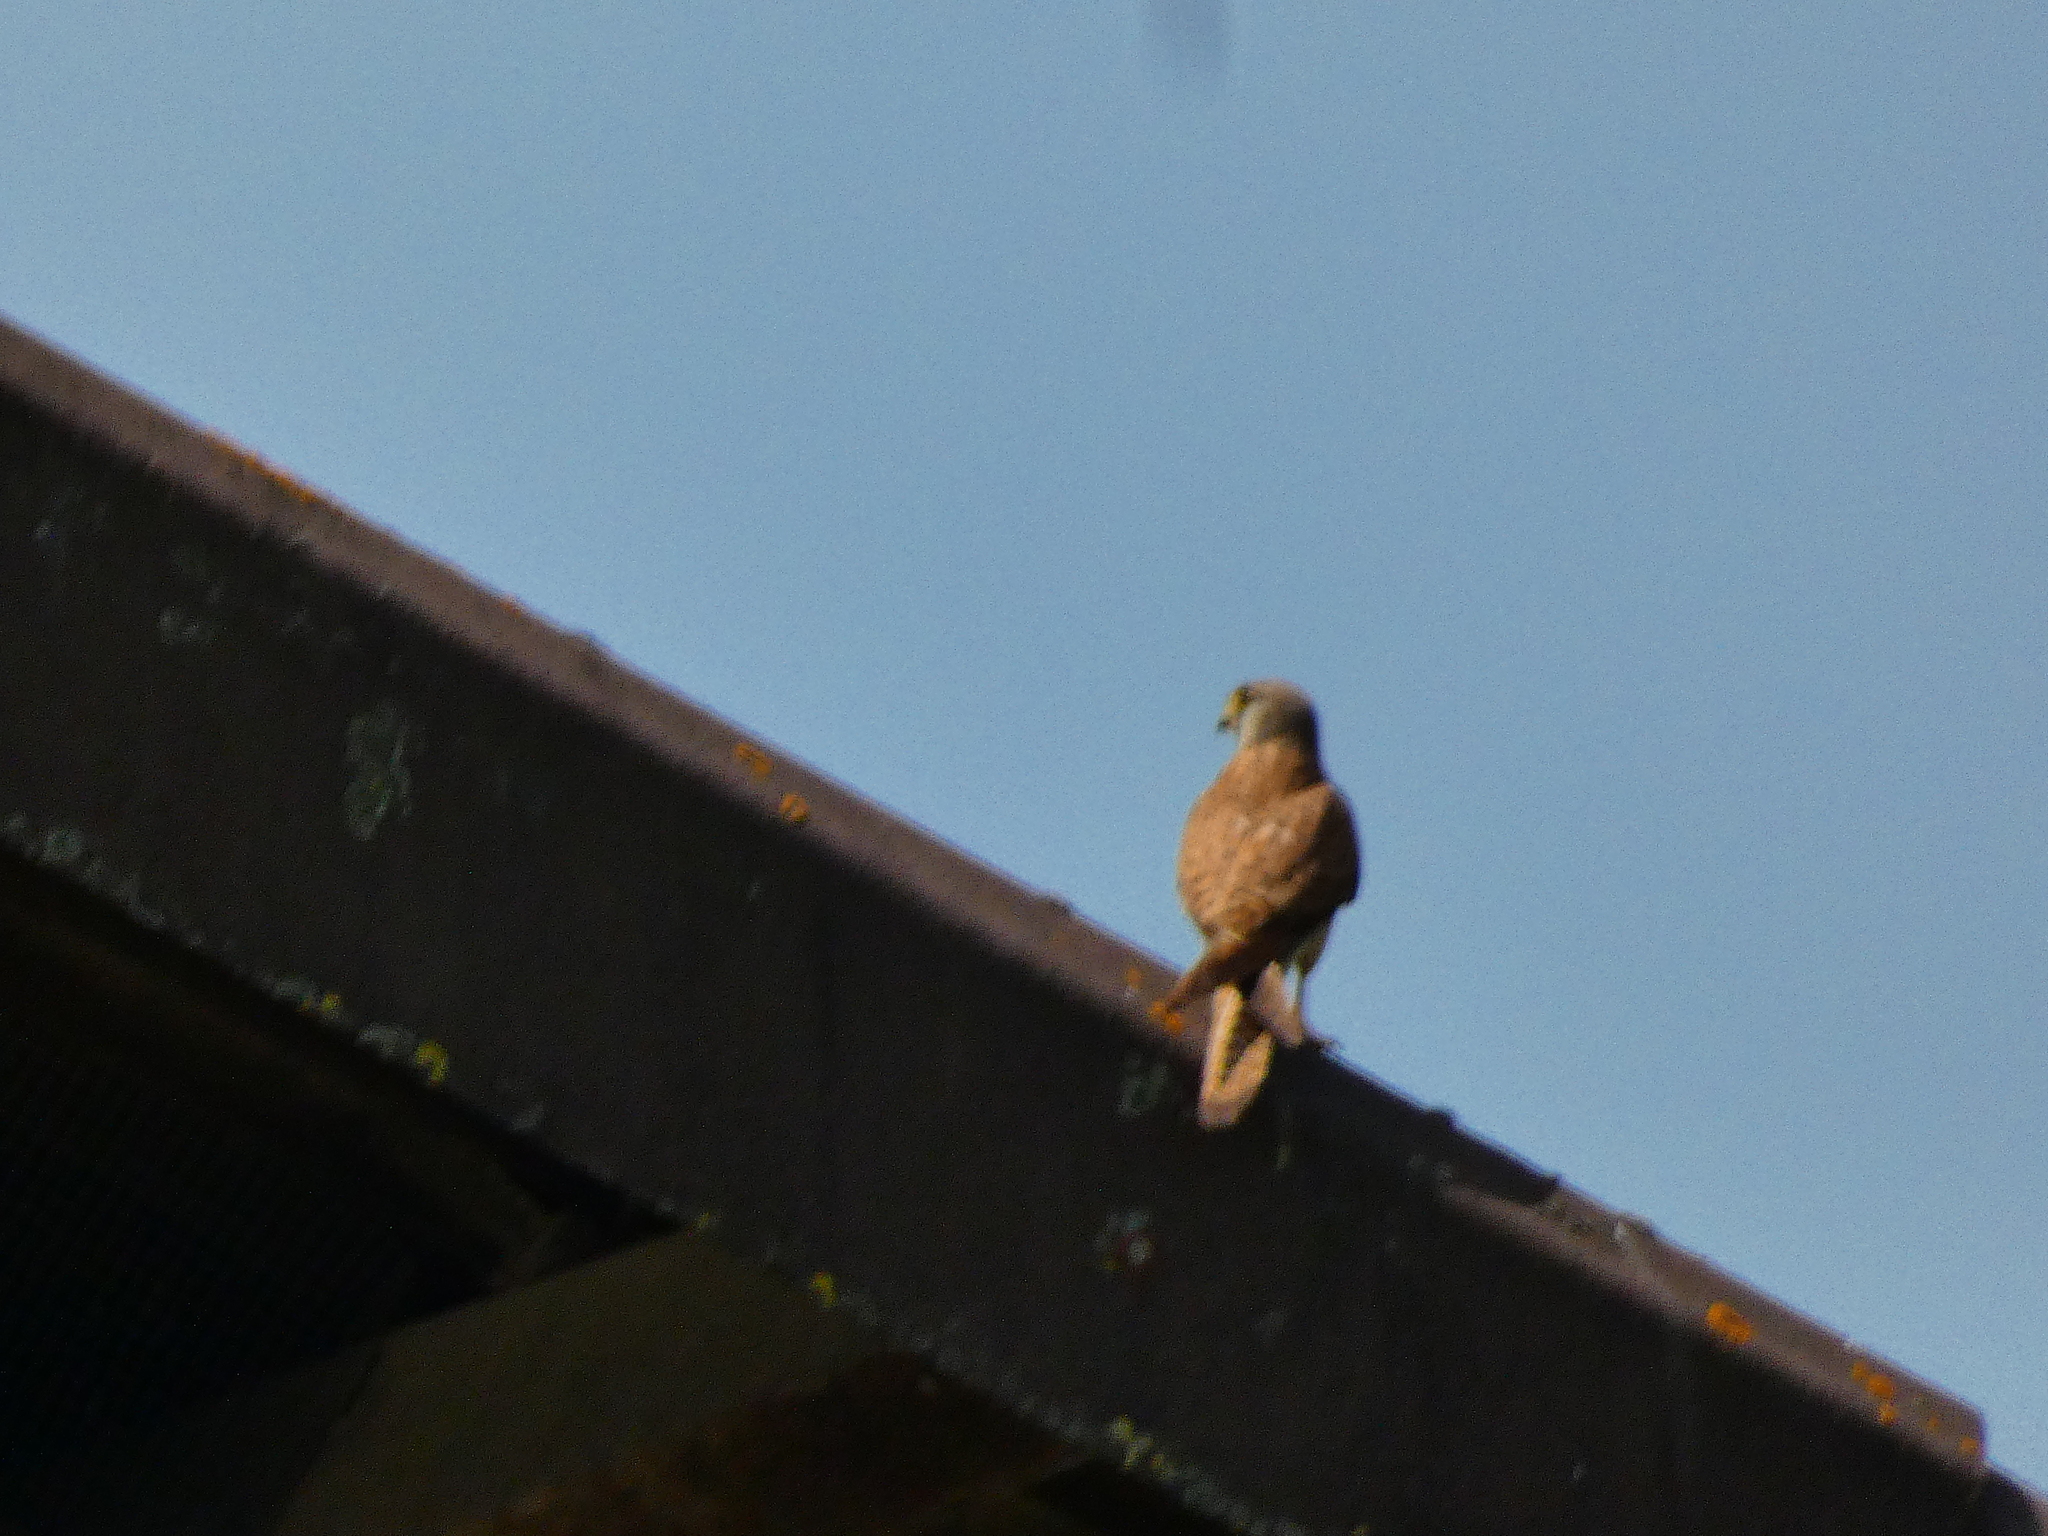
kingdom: Animalia
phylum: Chordata
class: Aves
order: Falconiformes
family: Falconidae
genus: Falco
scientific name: Falco tinnunculus
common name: Common kestrel
